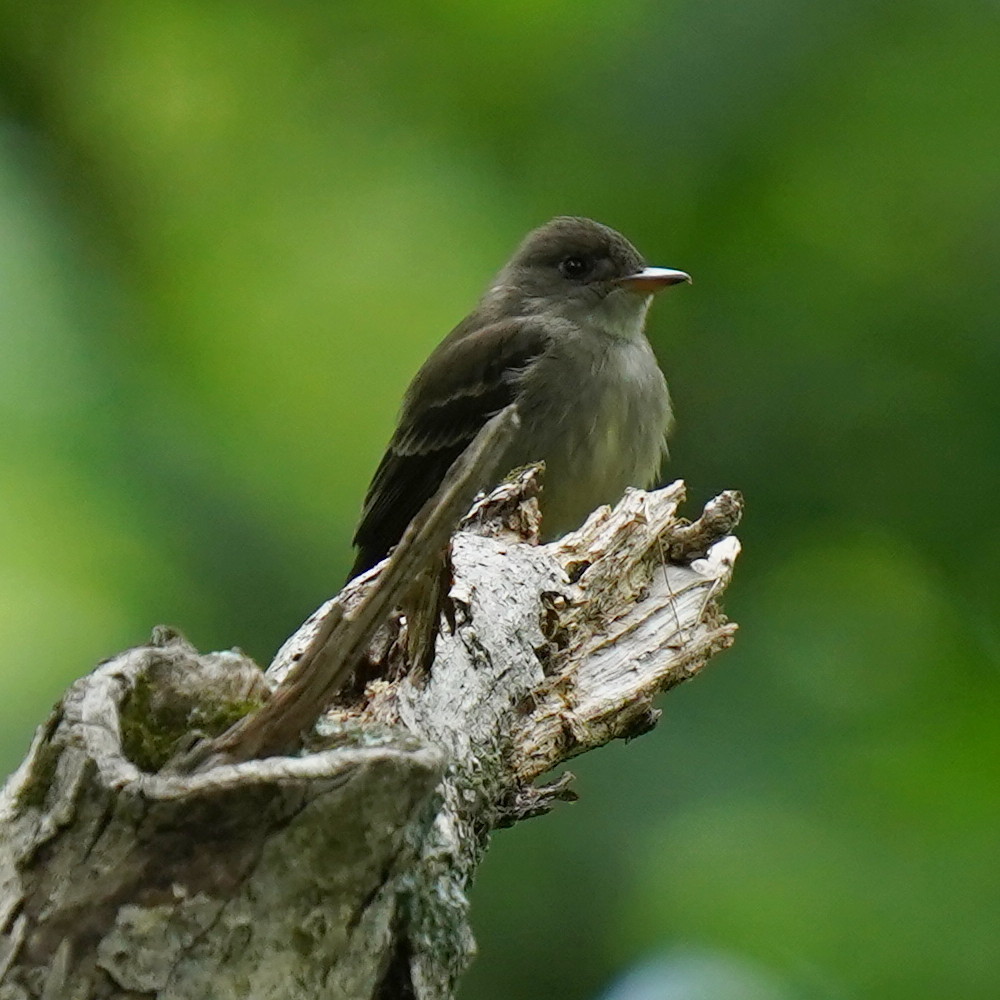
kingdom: Animalia
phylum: Chordata
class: Aves
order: Passeriformes
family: Tyrannidae
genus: Contopus
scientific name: Contopus virens
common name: Eastern wood-pewee
